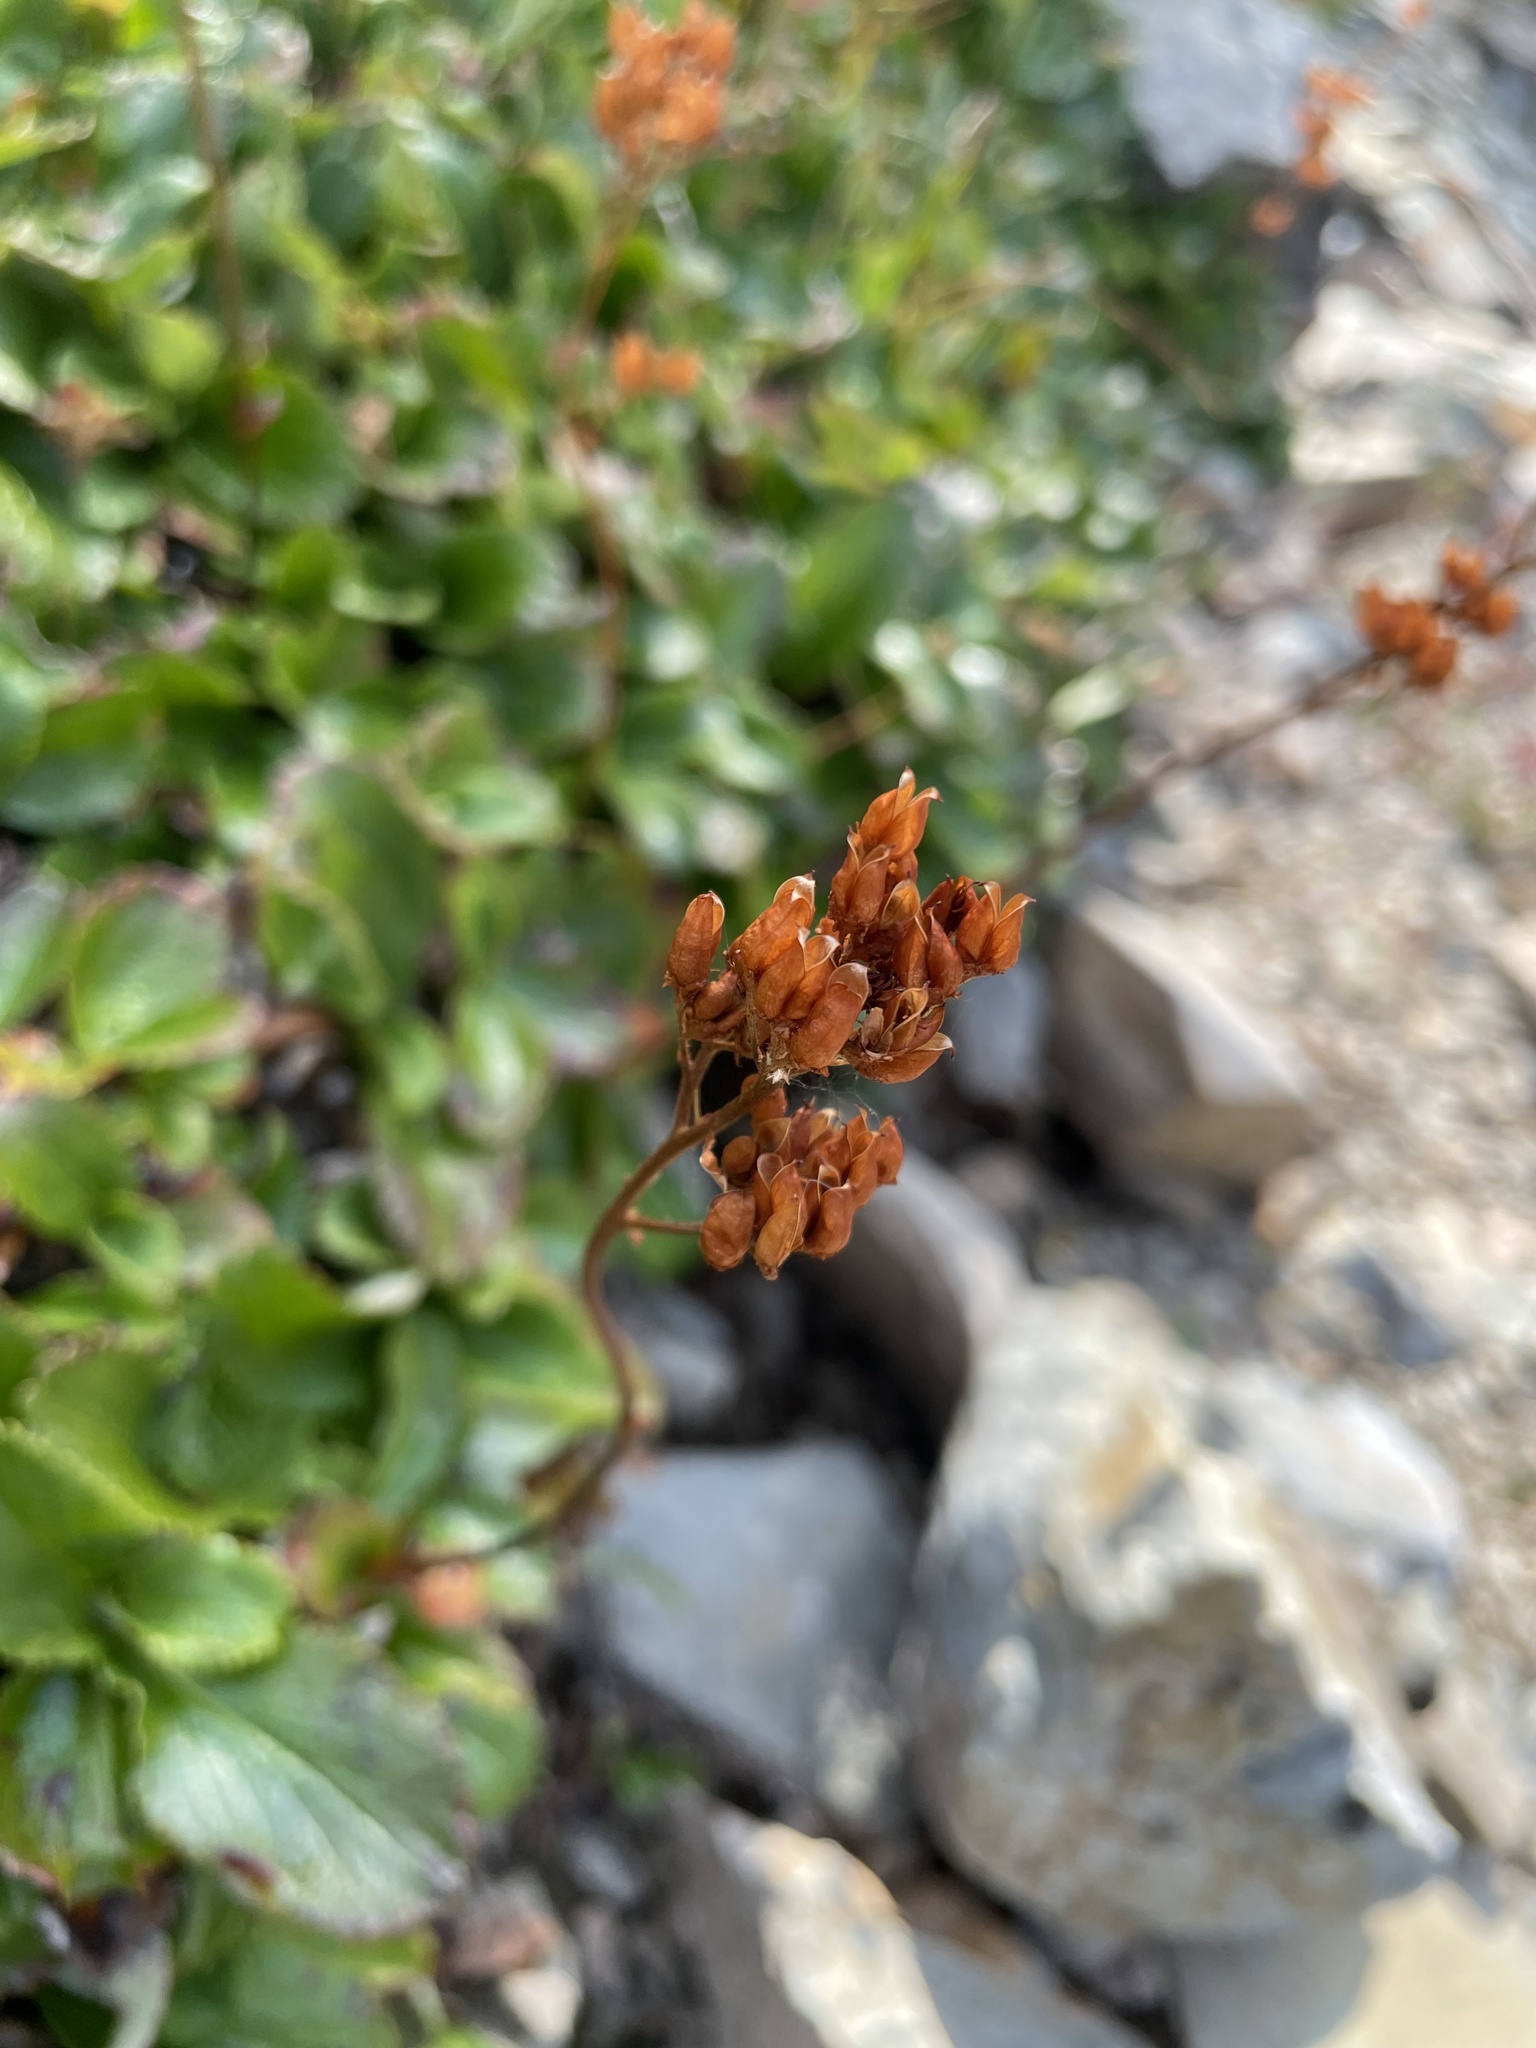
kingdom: Plantae
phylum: Tracheophyta
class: Magnoliopsida
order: Saxifragales
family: Saxifragaceae
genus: Leptarrhena
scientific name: Leptarrhena pyrolifolia
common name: Leatherleaf-saxifrage
